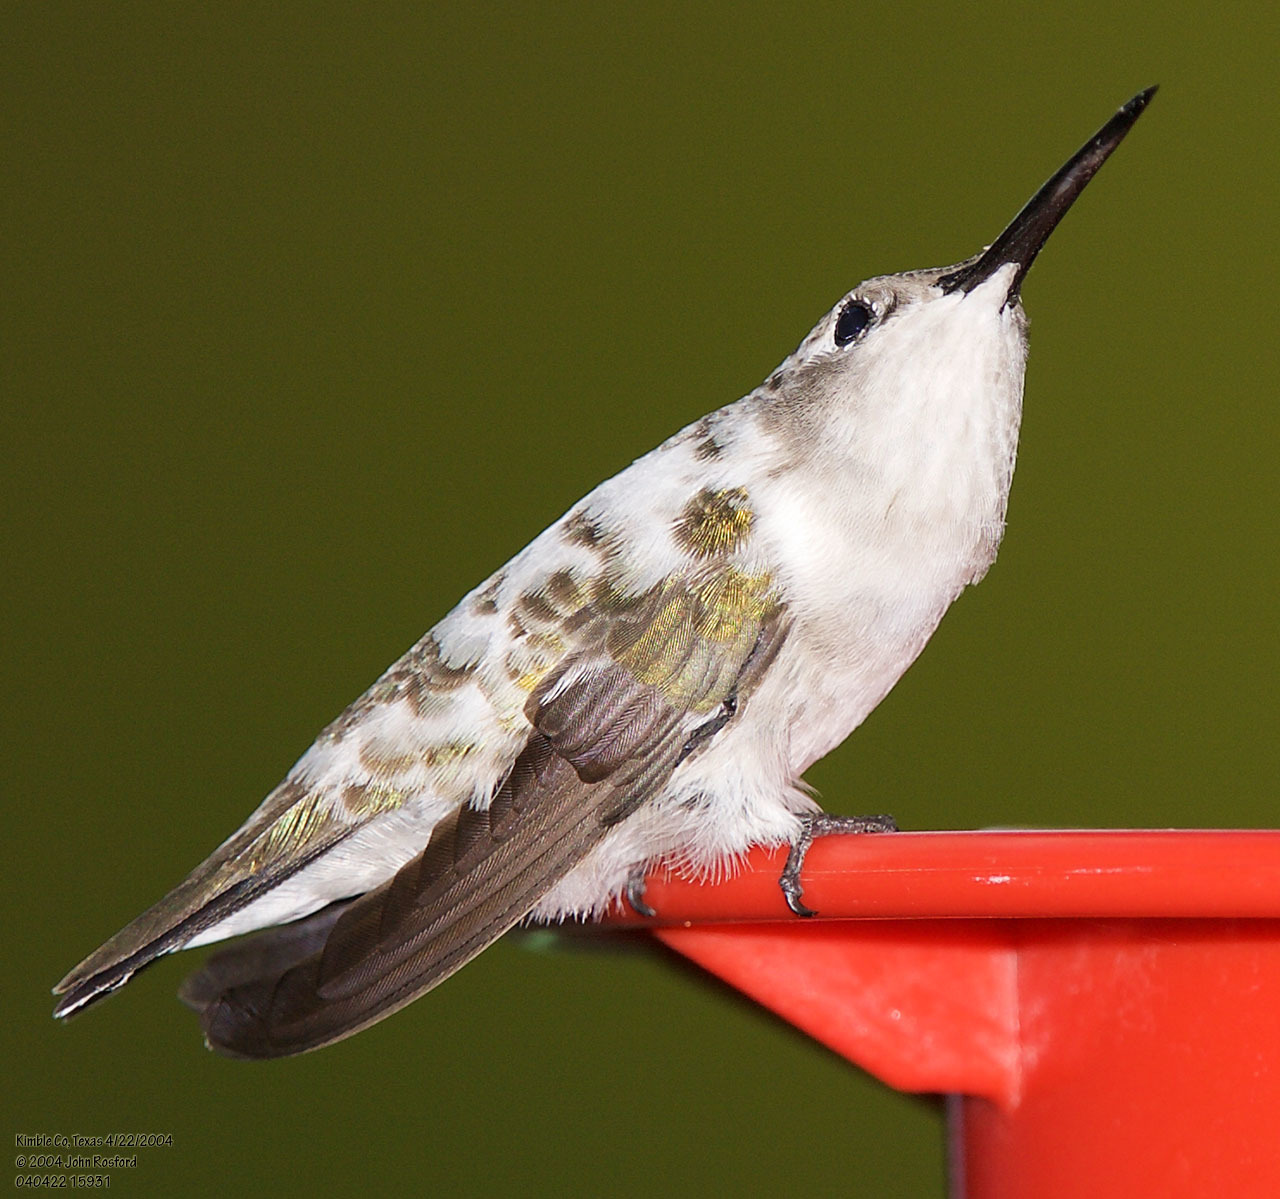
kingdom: Animalia
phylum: Chordata
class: Aves
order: Apodiformes
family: Trochilidae
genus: Archilochus
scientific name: Archilochus alexandri
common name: Black-chinned hummingbird
